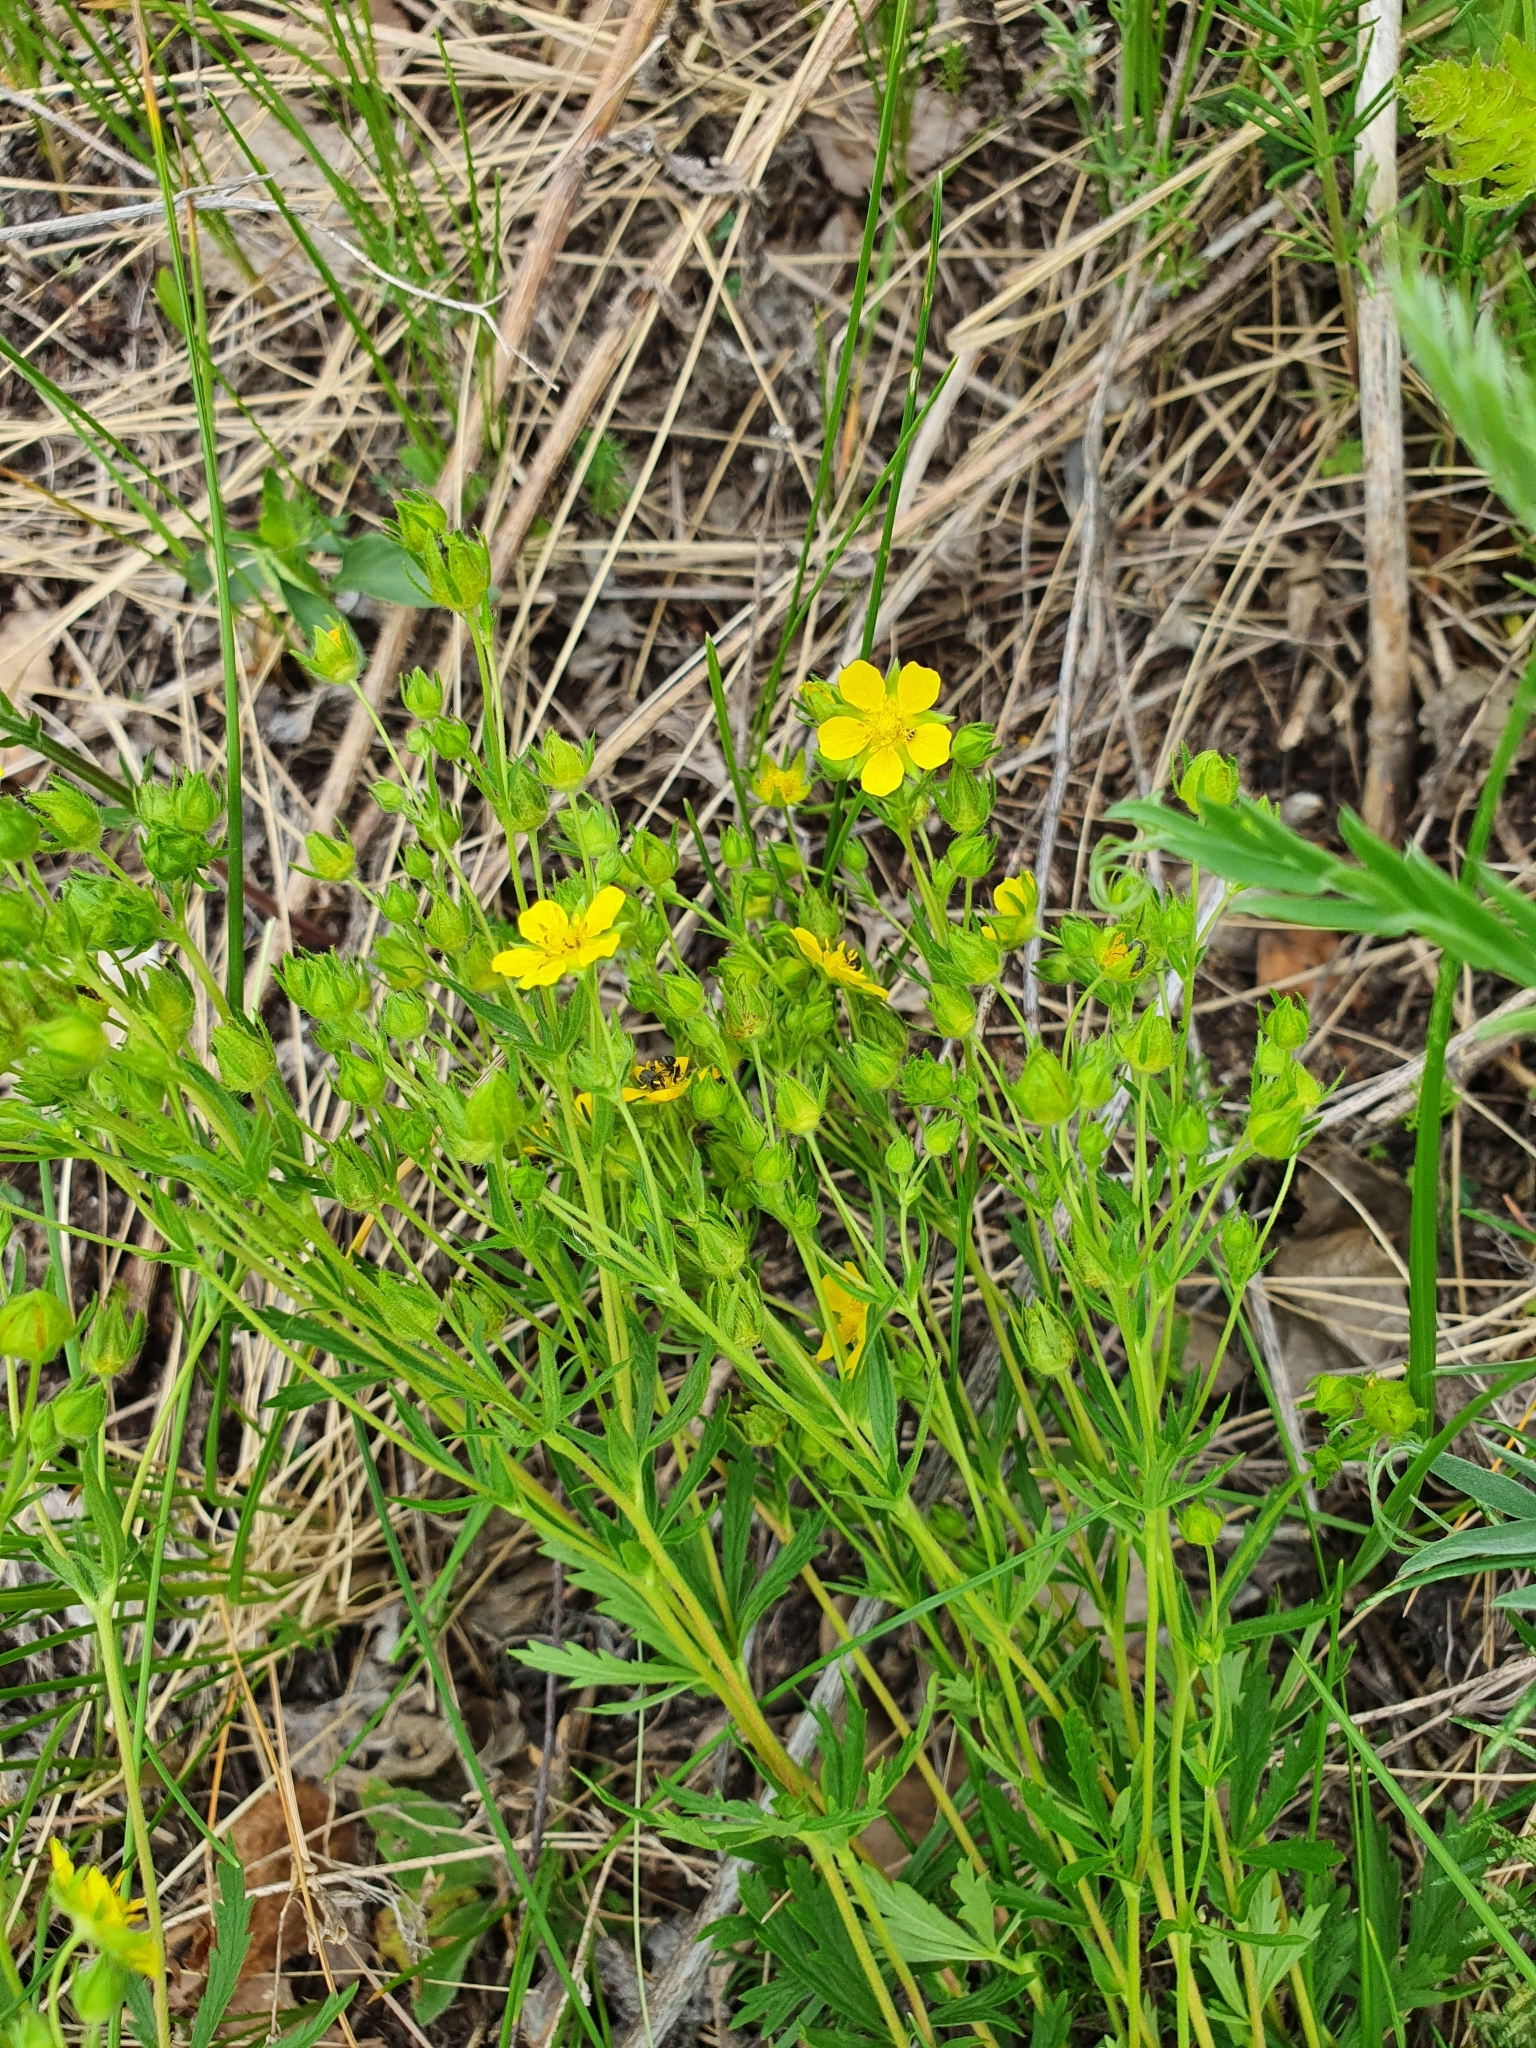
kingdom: Plantae
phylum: Tracheophyta
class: Magnoliopsida
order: Rosales
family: Rosaceae
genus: Potentilla
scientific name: Potentilla longipes
